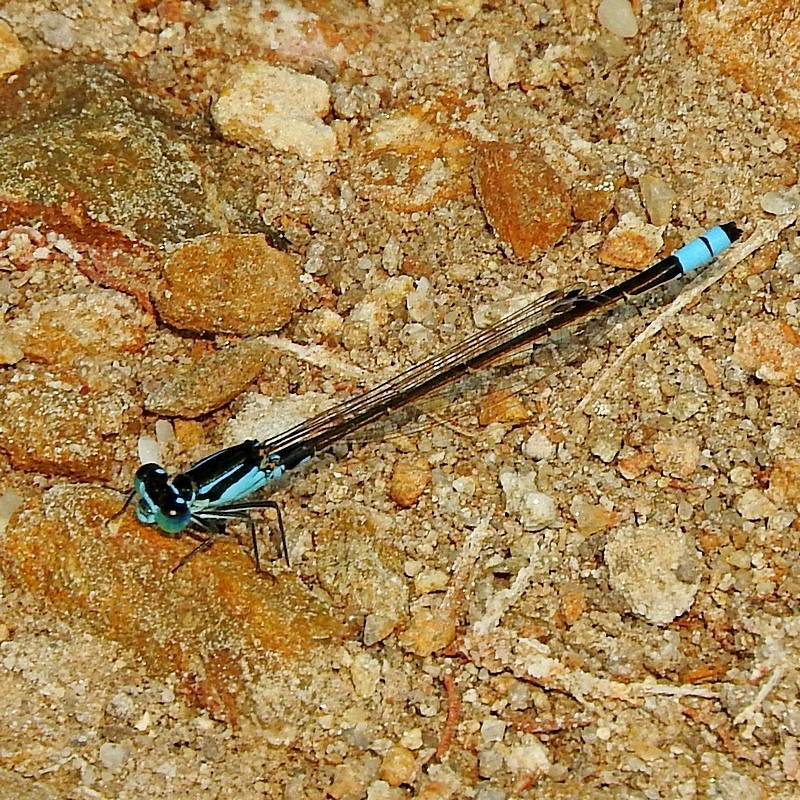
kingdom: Animalia
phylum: Arthropoda
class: Insecta
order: Odonata
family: Coenagrionidae
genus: Ischnura
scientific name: Ischnura heterosticta
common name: Common bluetail
